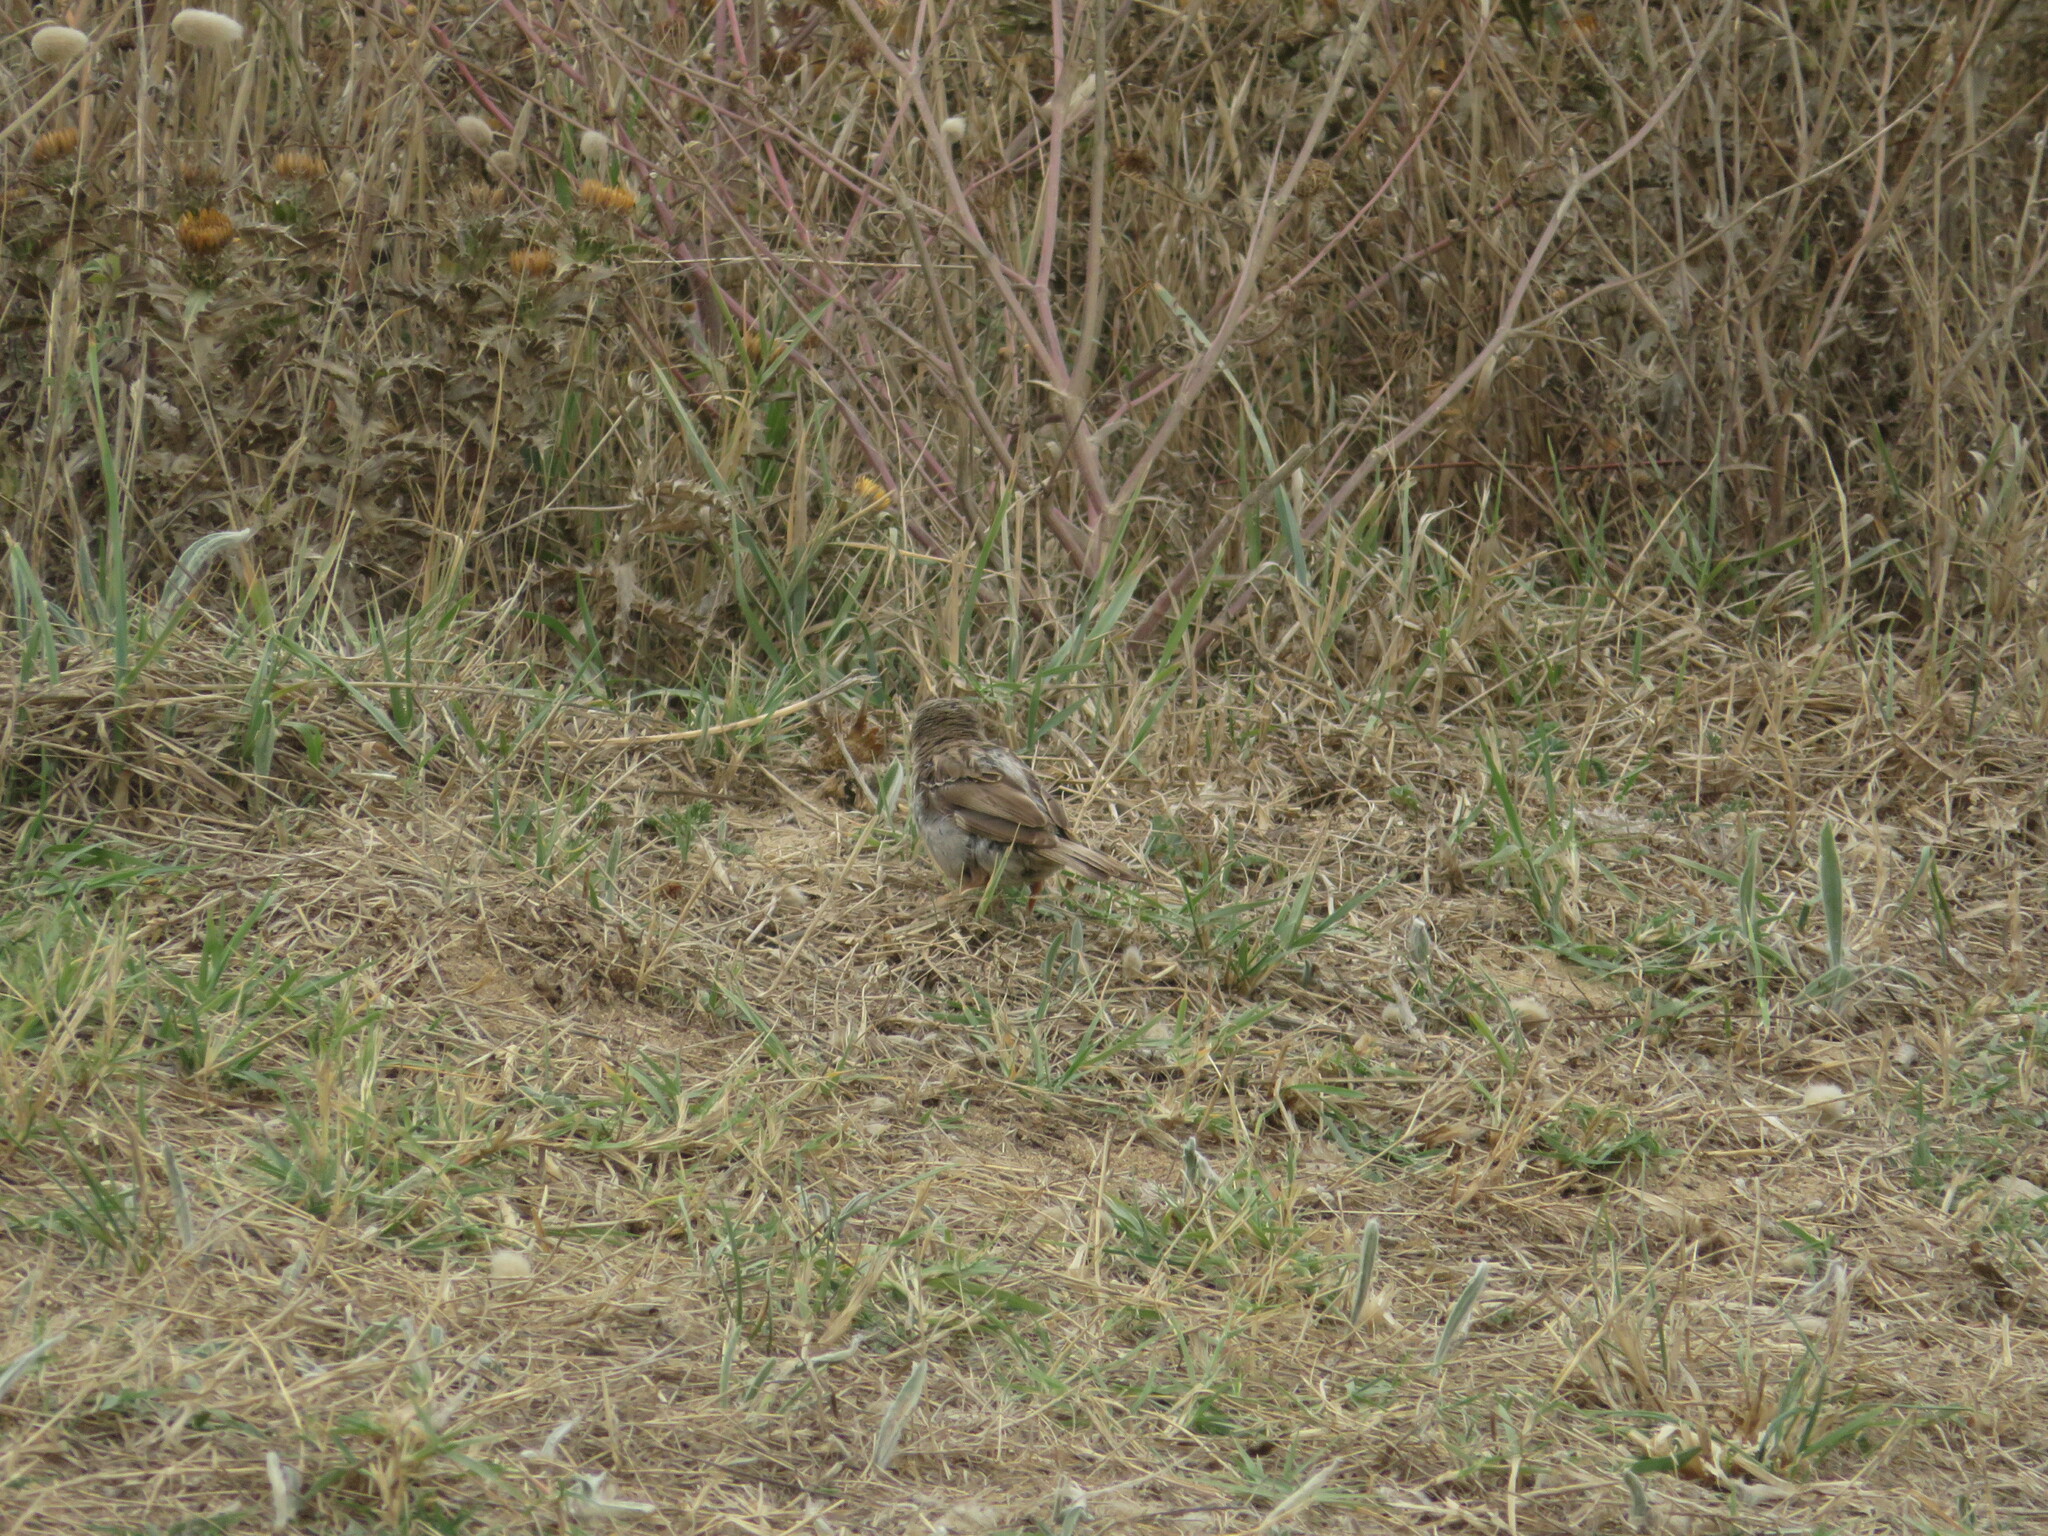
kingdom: Animalia
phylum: Chordata
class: Aves
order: Passeriformes
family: Passeridae
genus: Passer
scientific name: Passer domesticus
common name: House sparrow
